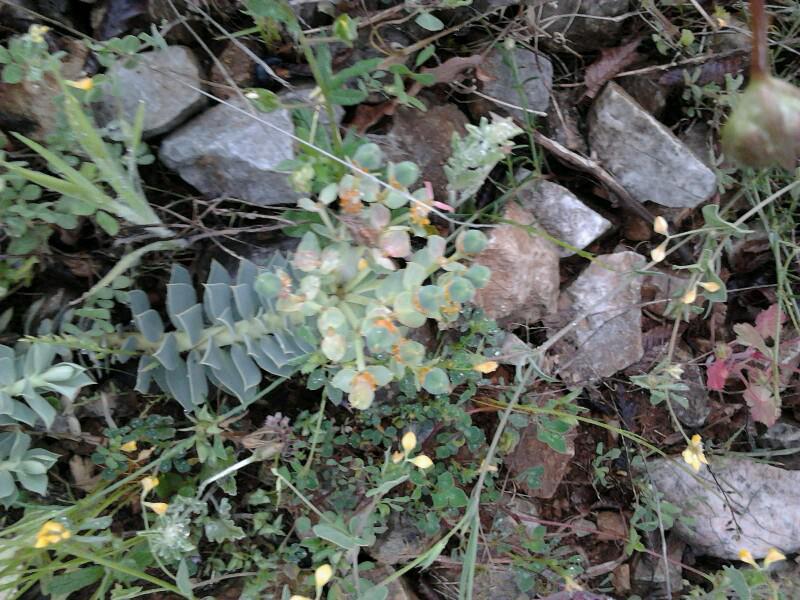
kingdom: Plantae
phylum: Tracheophyta
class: Magnoliopsida
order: Malpighiales
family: Euphorbiaceae
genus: Euphorbia
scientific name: Euphorbia myrsinites
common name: Myrtle spurge
